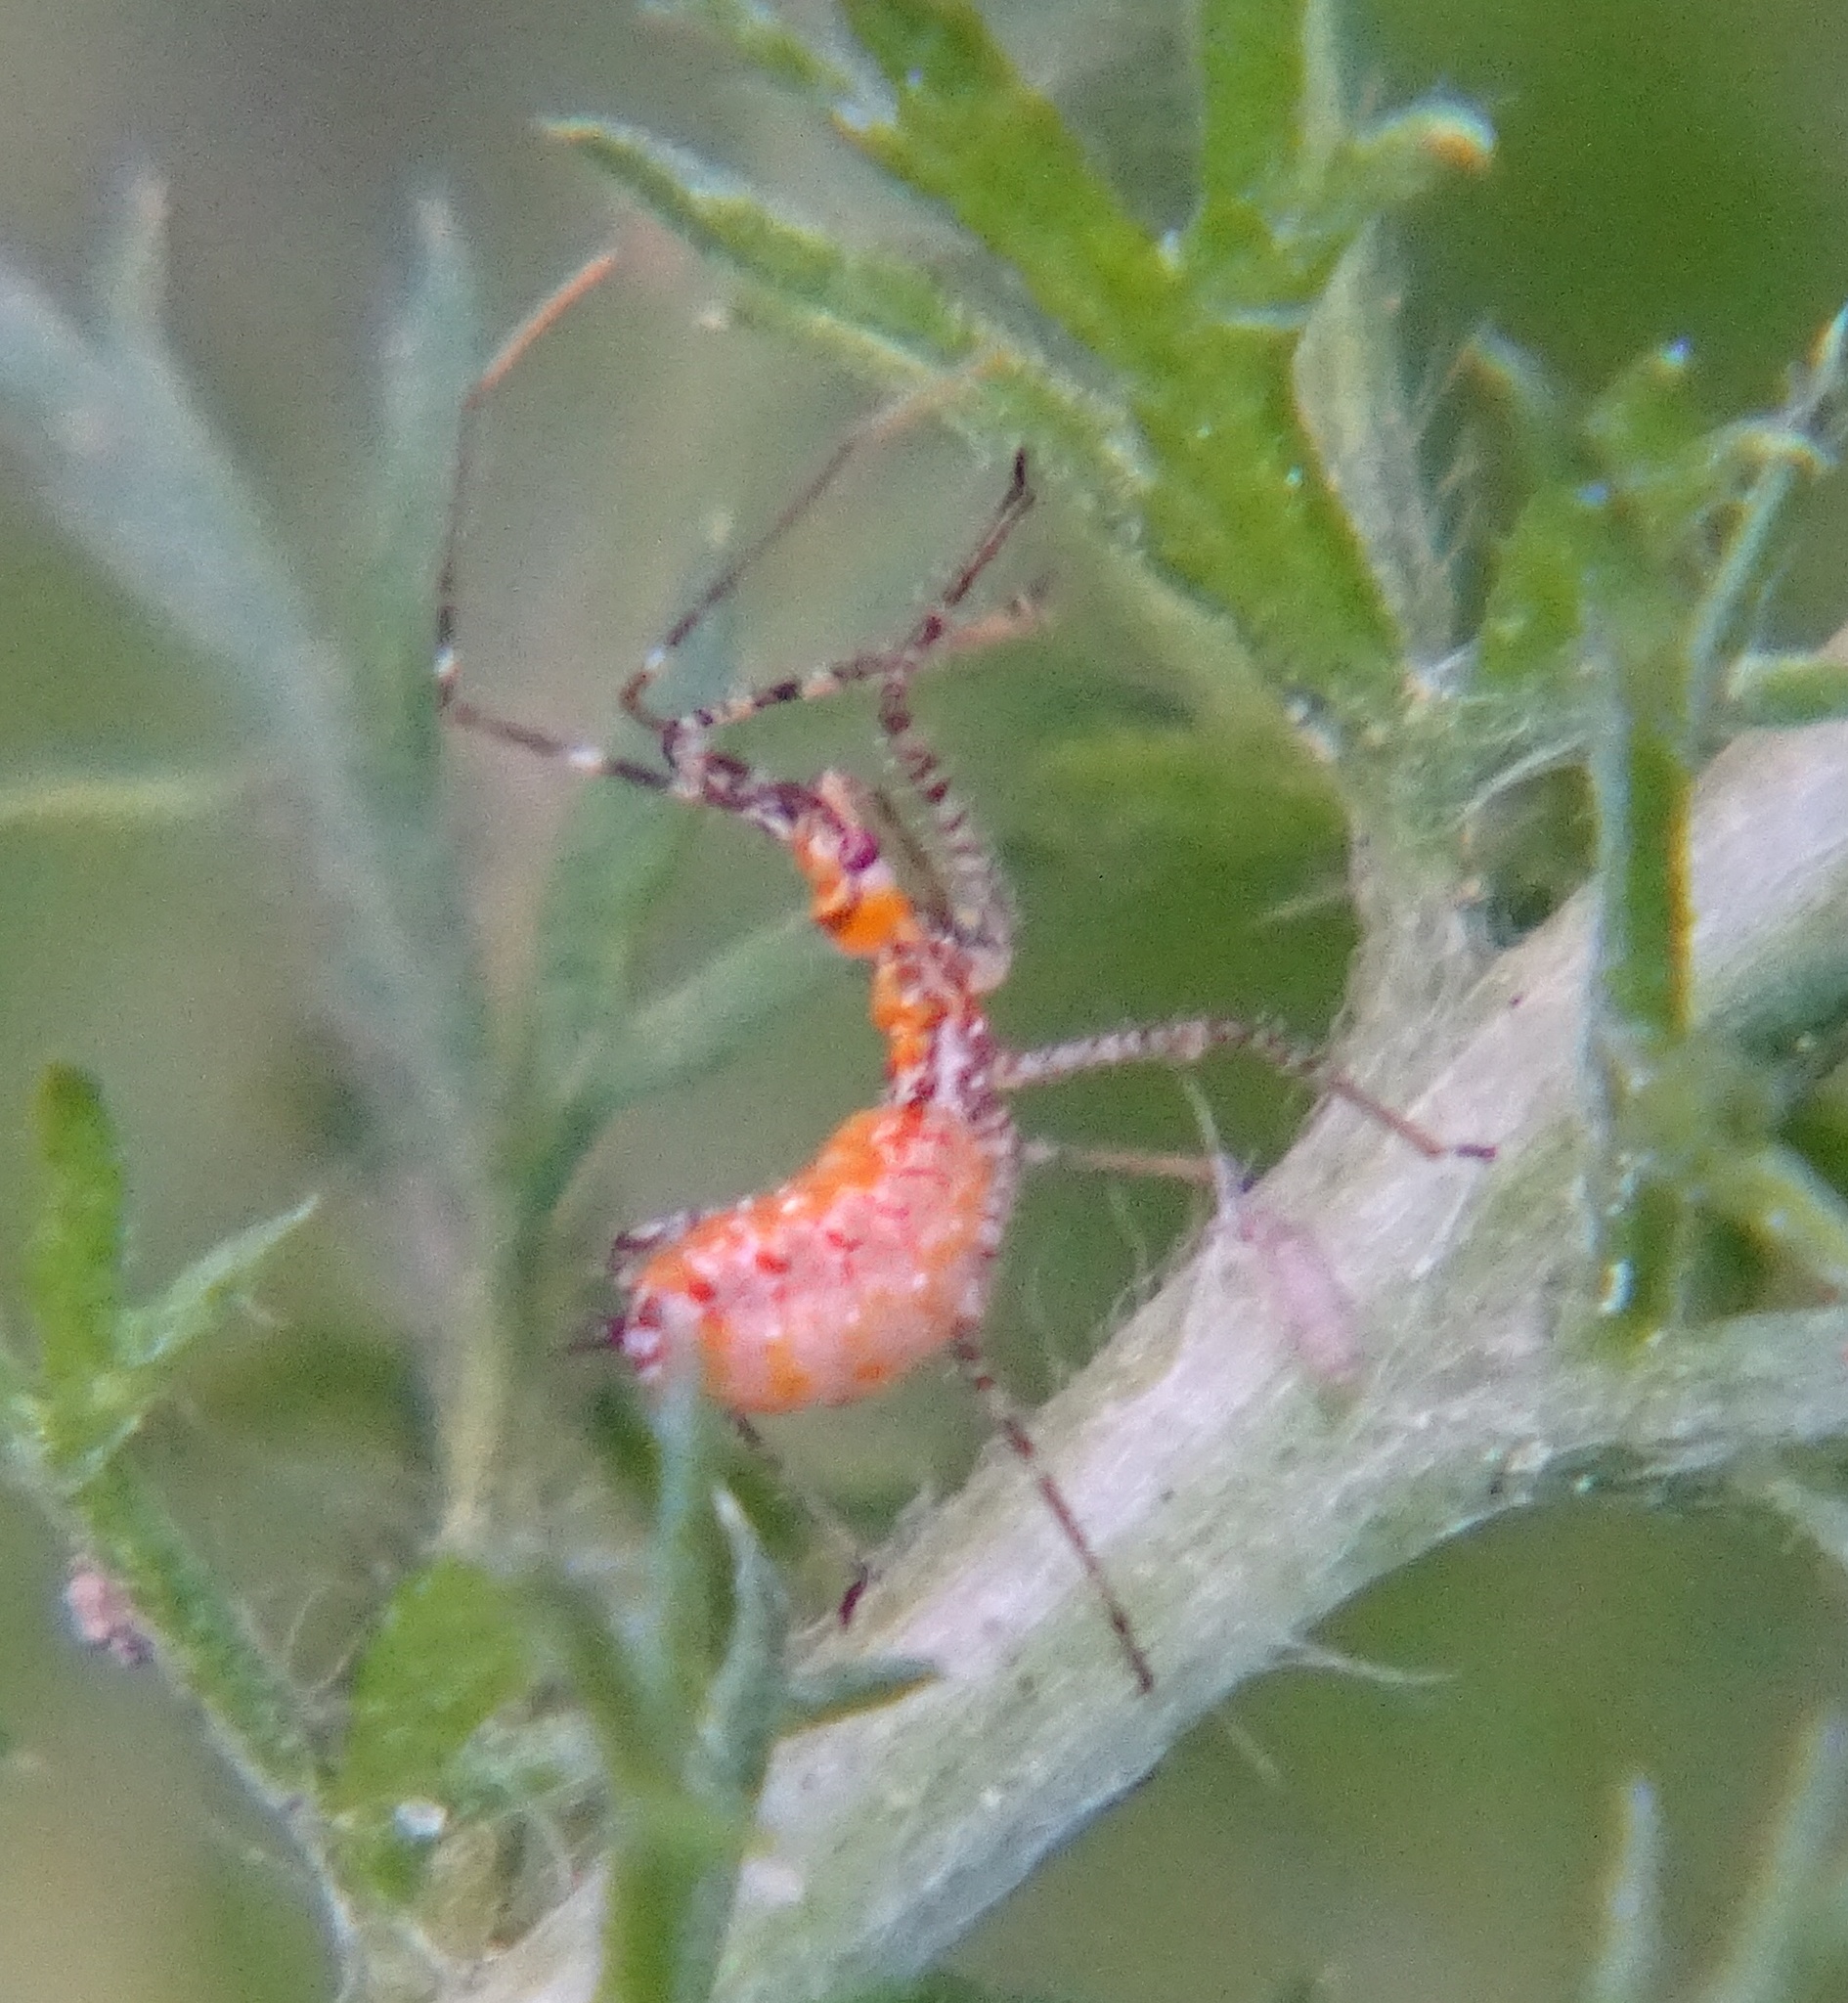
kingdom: Animalia
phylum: Arthropoda
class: Insecta
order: Hemiptera
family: Reduviidae
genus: Zelus
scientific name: Zelus renardii
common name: Assassin bug
